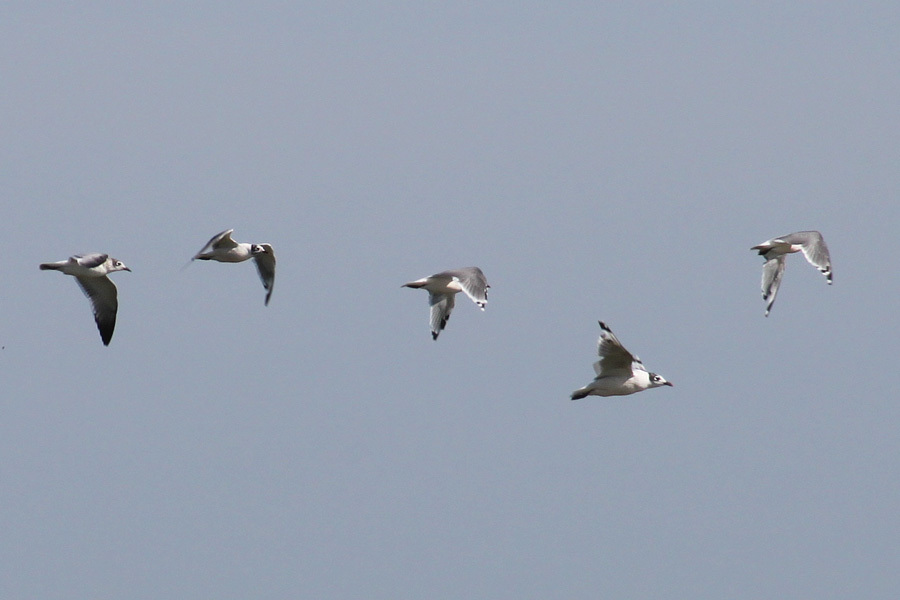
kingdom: Animalia
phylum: Chordata
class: Aves
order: Charadriiformes
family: Laridae
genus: Leucophaeus
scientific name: Leucophaeus pipixcan
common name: Franklin's gull
